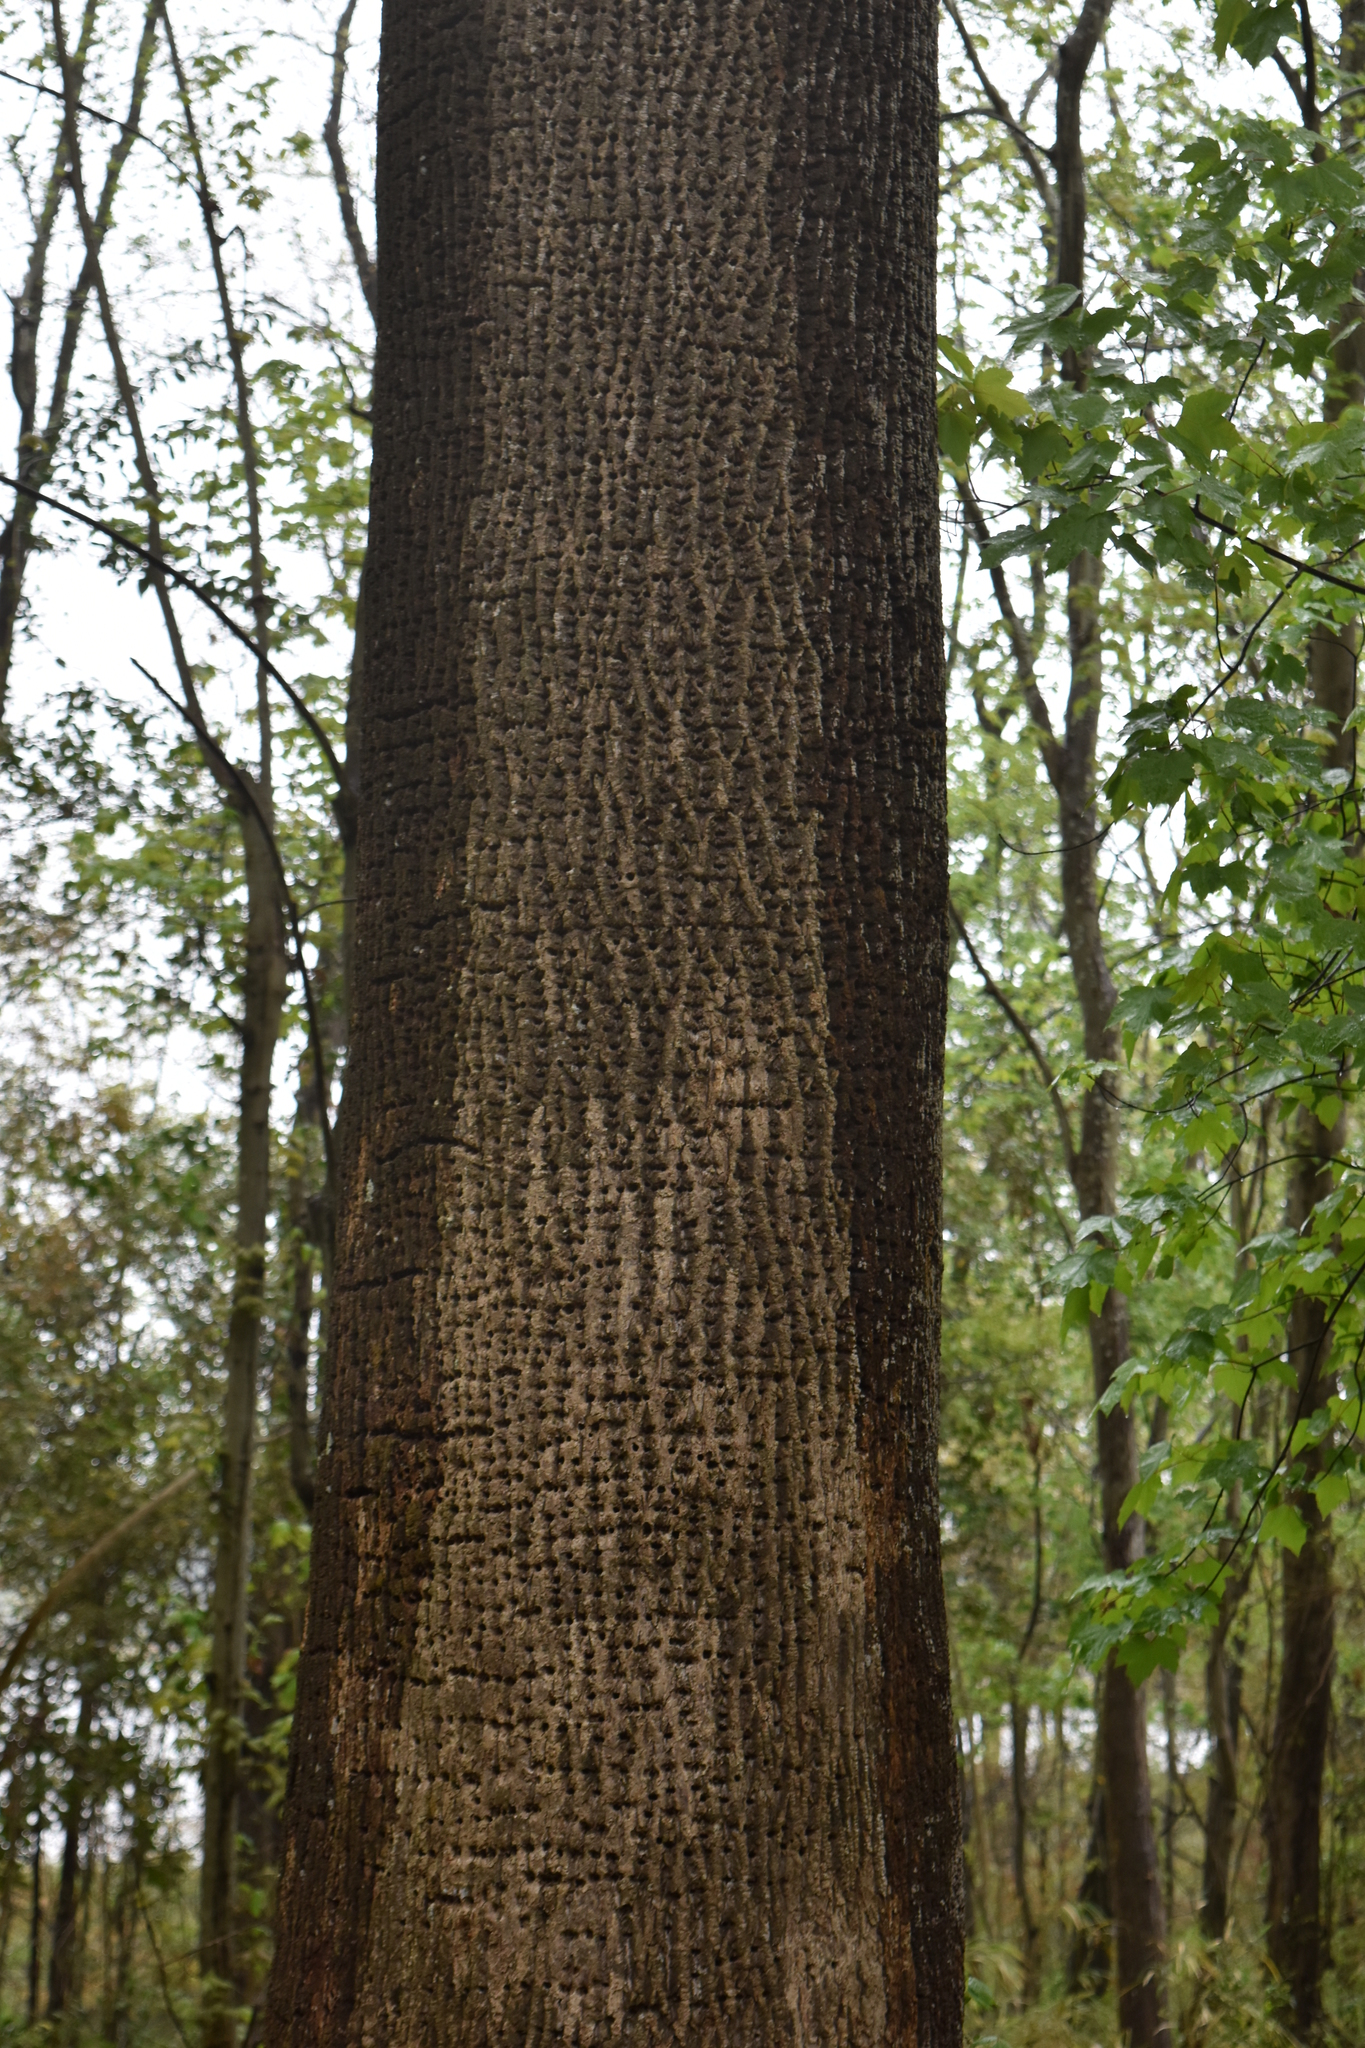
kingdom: Animalia
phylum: Chordata
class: Aves
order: Piciformes
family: Picidae
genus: Sphyrapicus
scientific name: Sphyrapicus varius
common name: Yellow-bellied sapsucker
